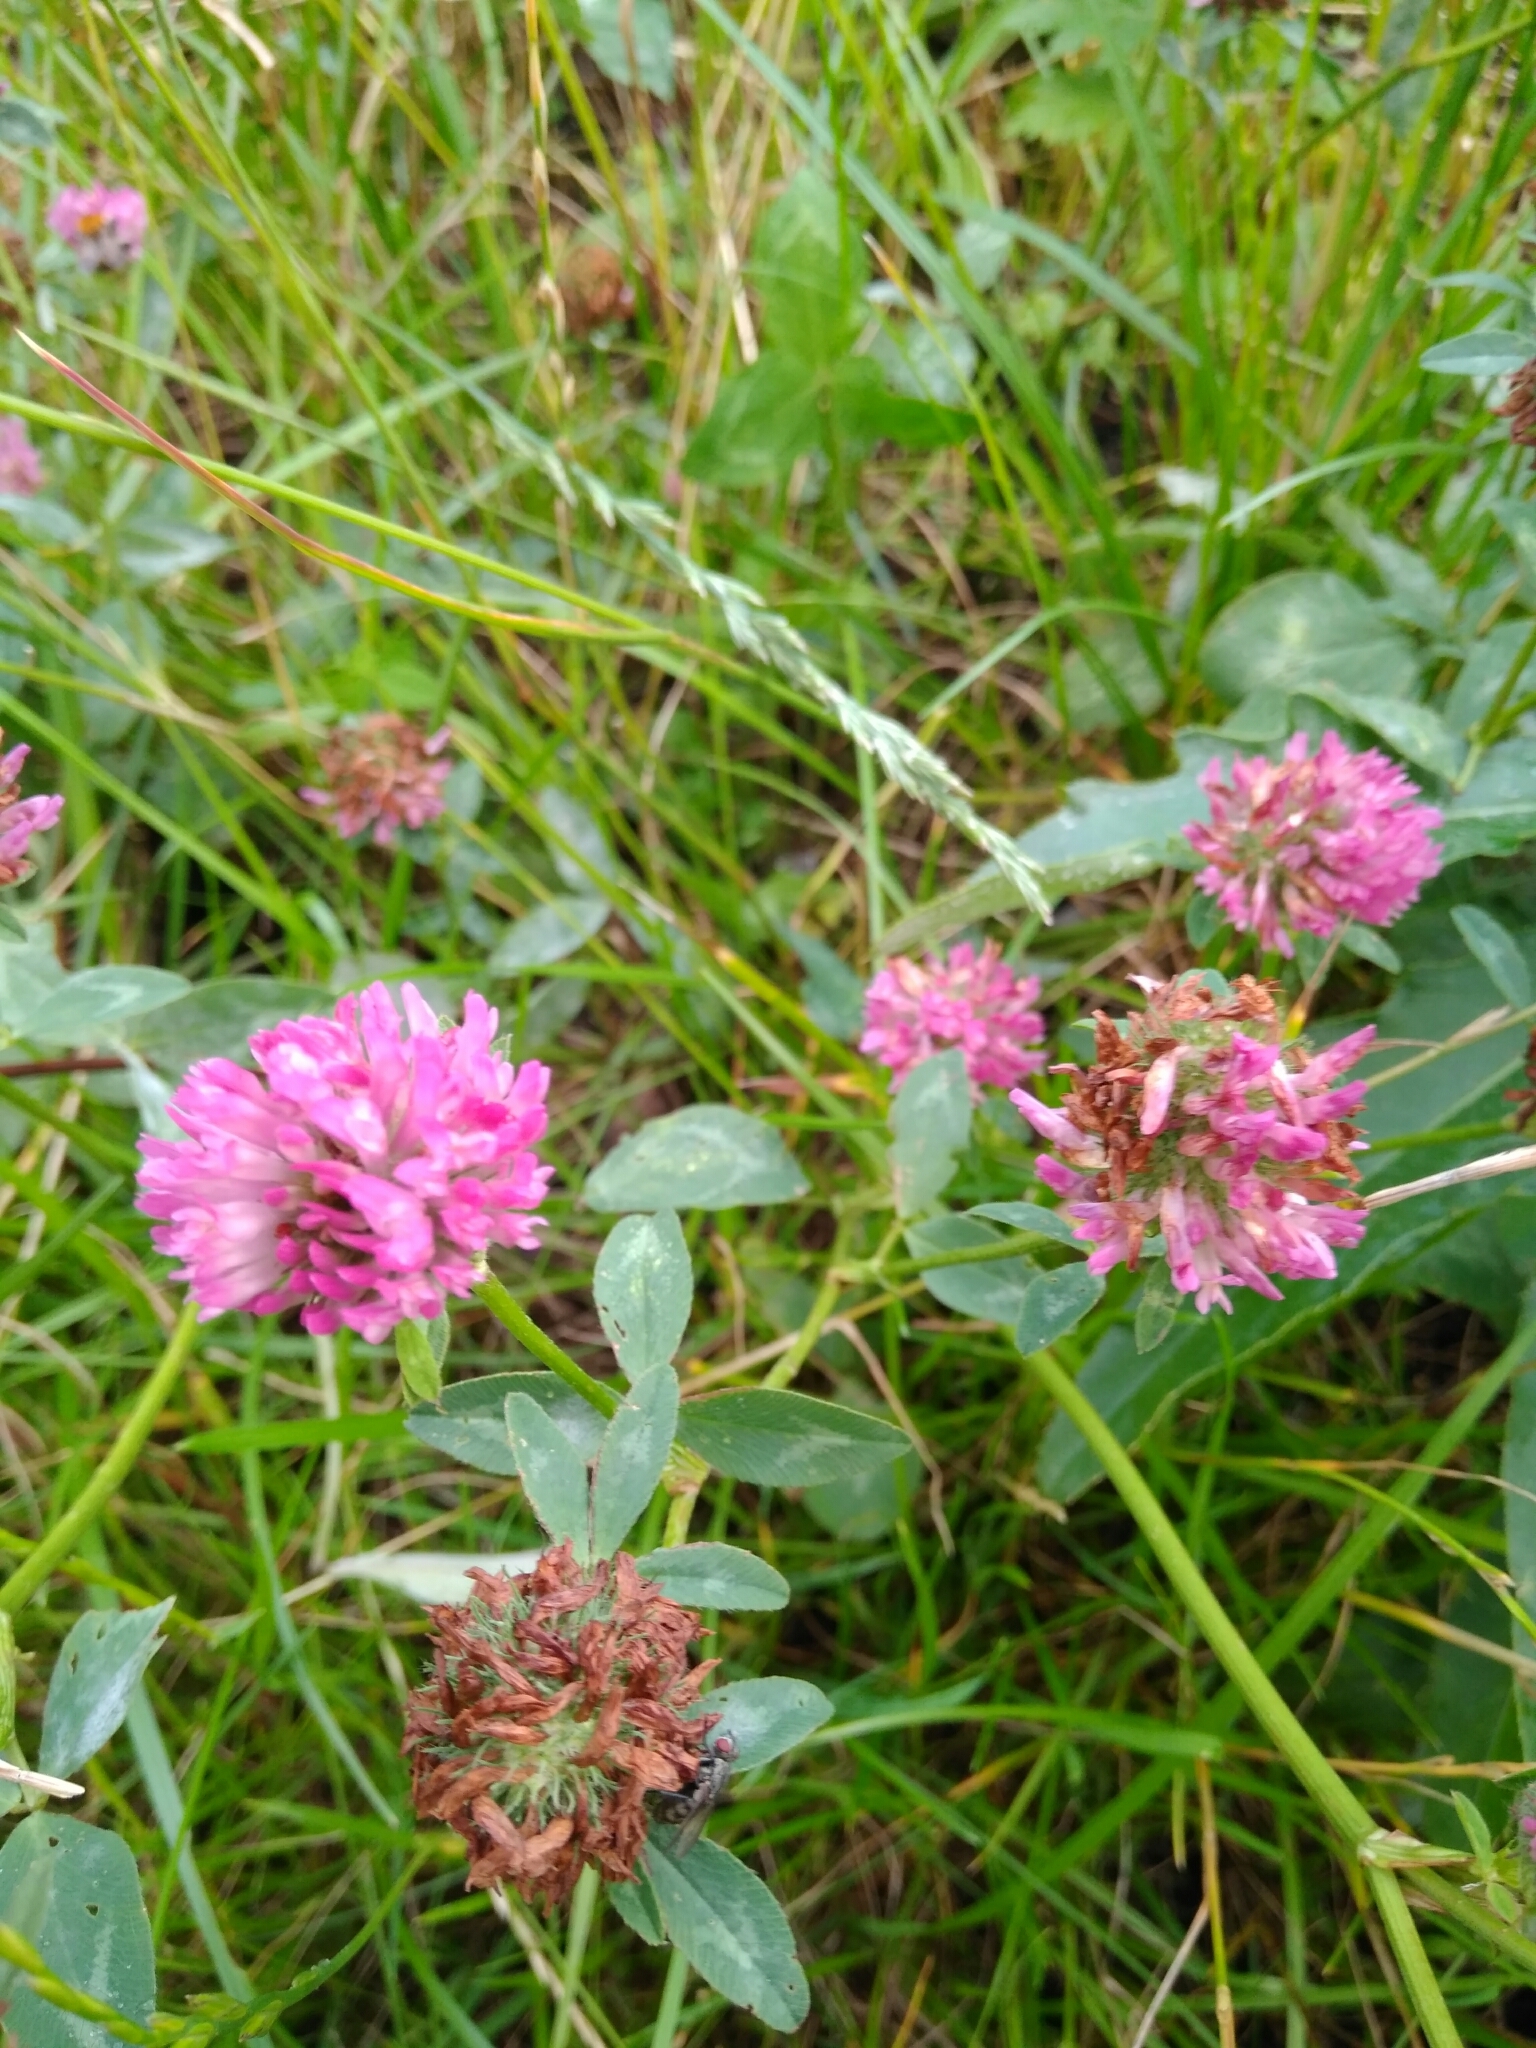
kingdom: Plantae
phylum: Tracheophyta
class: Magnoliopsida
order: Fabales
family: Fabaceae
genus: Trifolium
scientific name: Trifolium pratense
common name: Red clover
